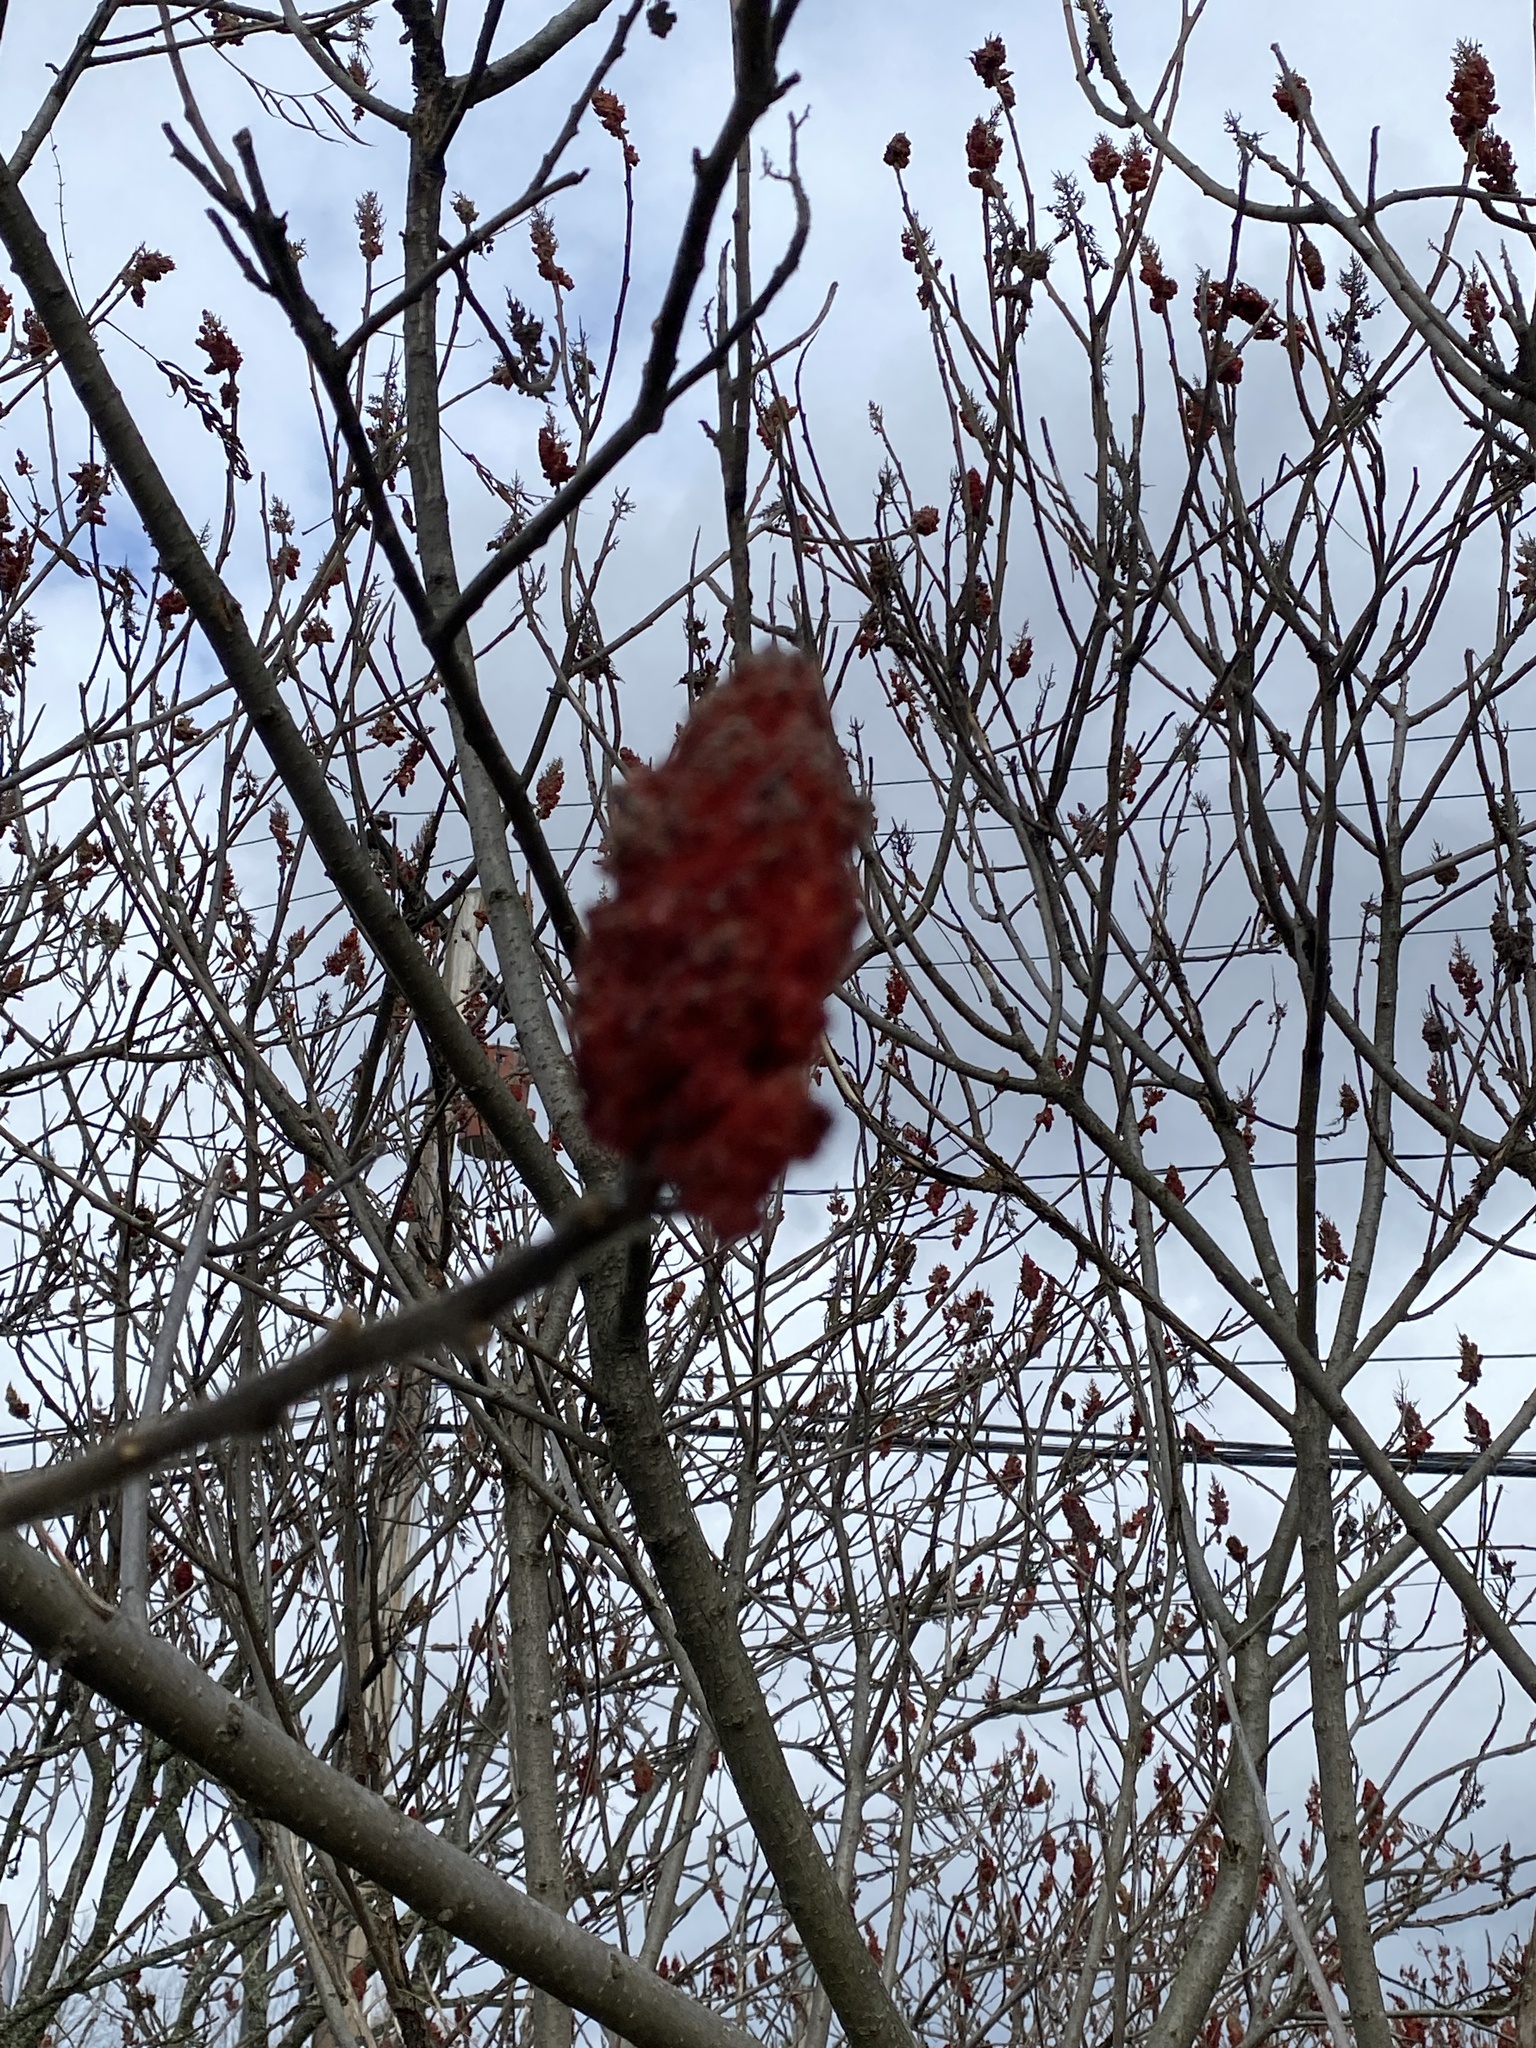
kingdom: Plantae
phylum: Tracheophyta
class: Magnoliopsida
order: Sapindales
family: Anacardiaceae
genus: Rhus
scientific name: Rhus typhina
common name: Staghorn sumac
